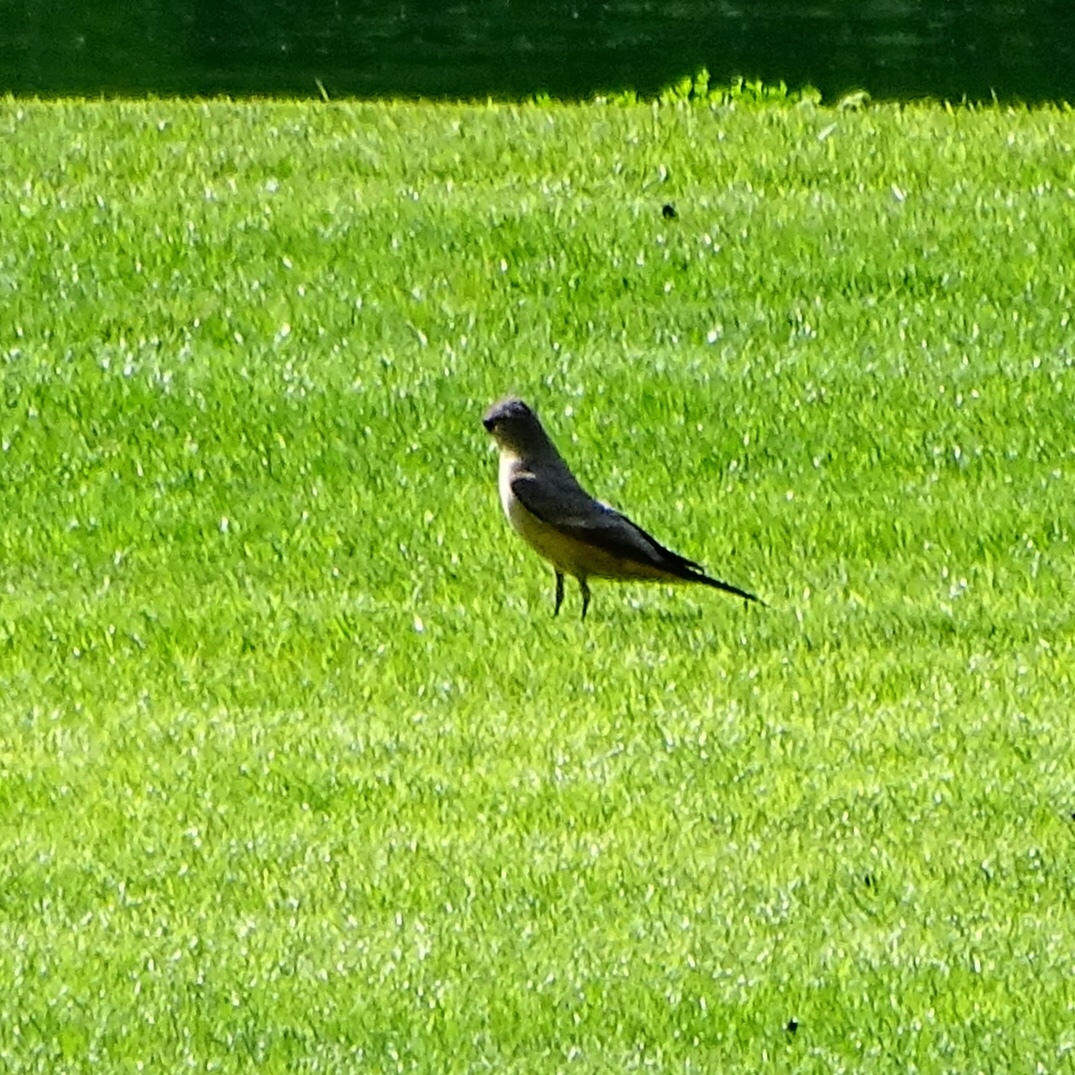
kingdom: Animalia
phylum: Chordata
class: Aves
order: Passeriformes
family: Tyrannidae
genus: Sayornis
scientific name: Sayornis saya
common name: Say's phoebe
